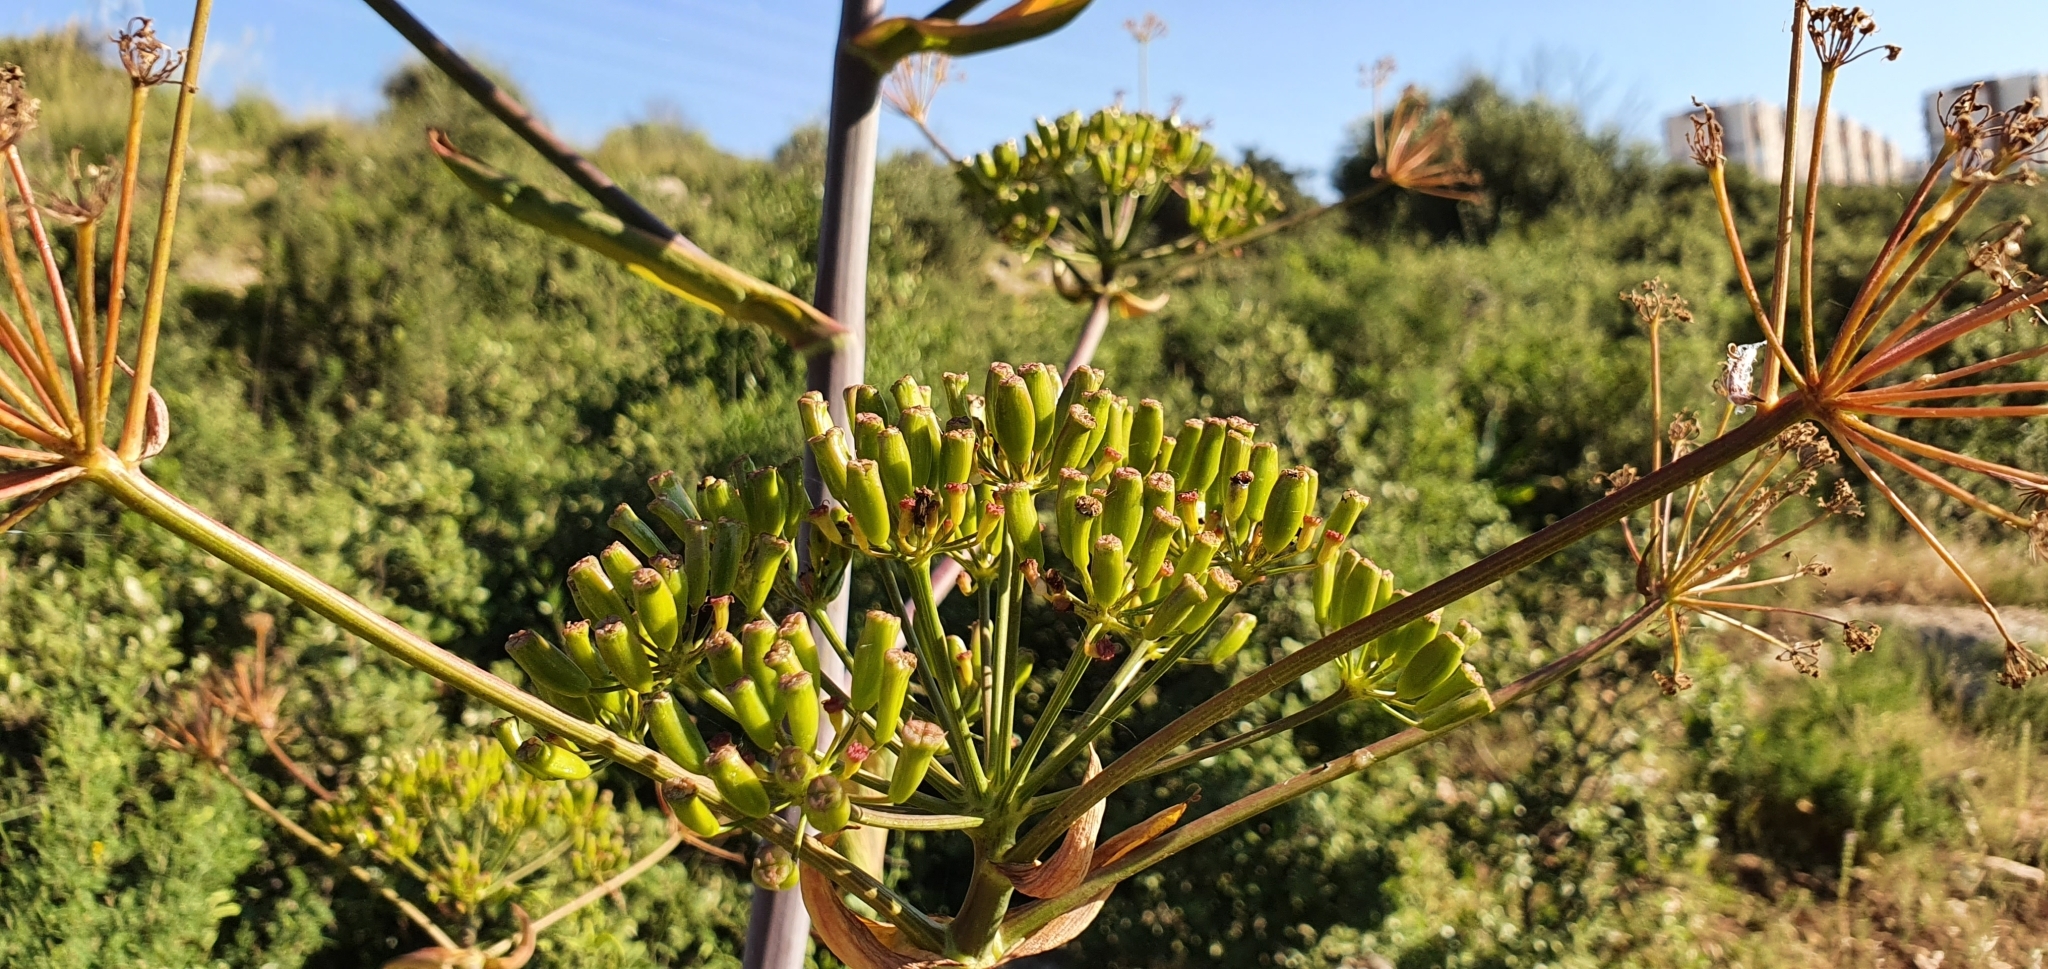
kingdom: Plantae
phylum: Tracheophyta
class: Magnoliopsida
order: Apiales
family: Apiaceae
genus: Ferula
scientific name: Ferula communis
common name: Giant fennel
